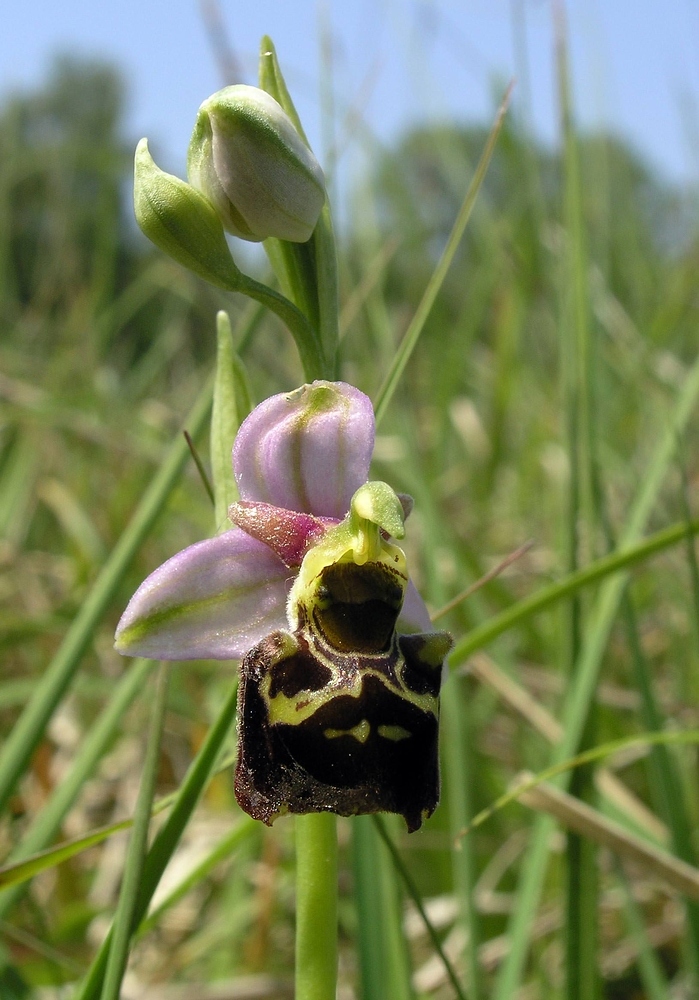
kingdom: Plantae
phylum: Tracheophyta
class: Liliopsida
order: Asparagales
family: Orchidaceae
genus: Ophrys
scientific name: Ophrys holosericea
